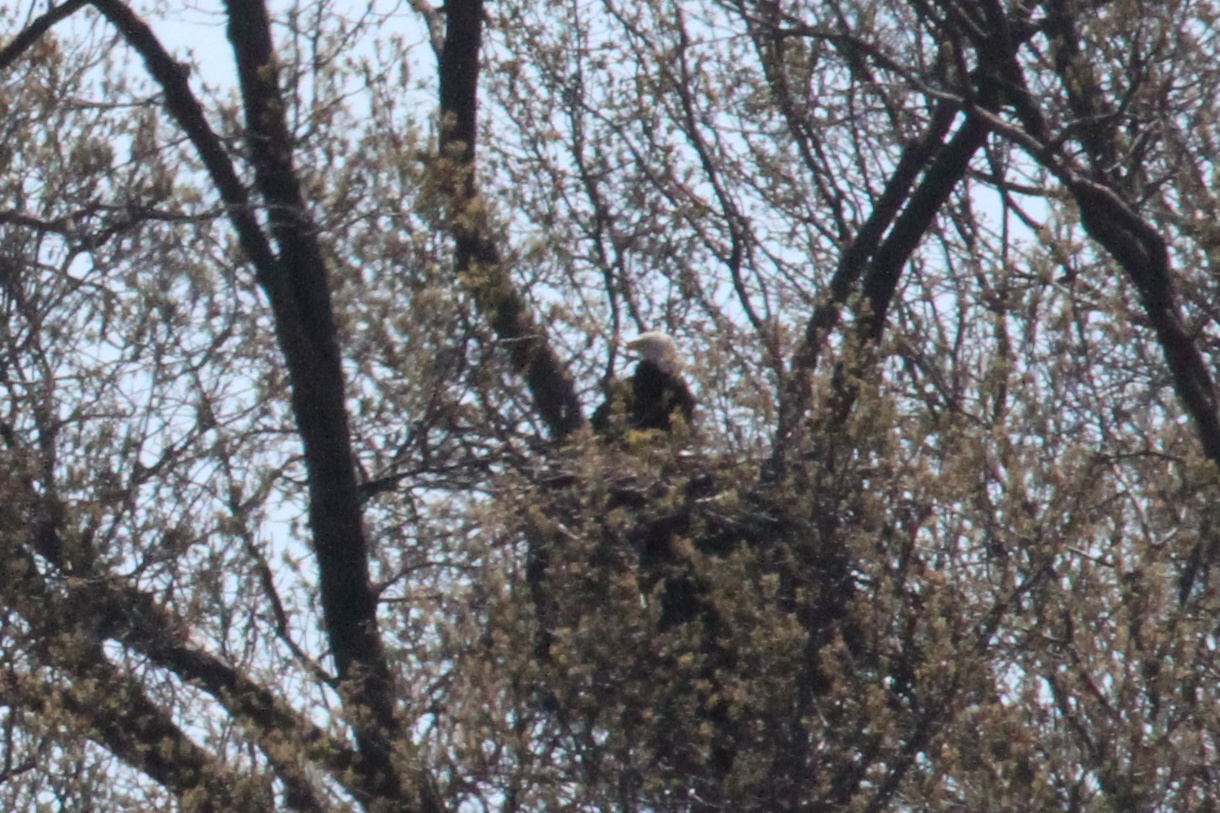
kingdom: Animalia
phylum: Chordata
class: Aves
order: Accipitriformes
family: Accipitridae
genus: Haliaeetus
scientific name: Haliaeetus leucocephalus
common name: Bald eagle
